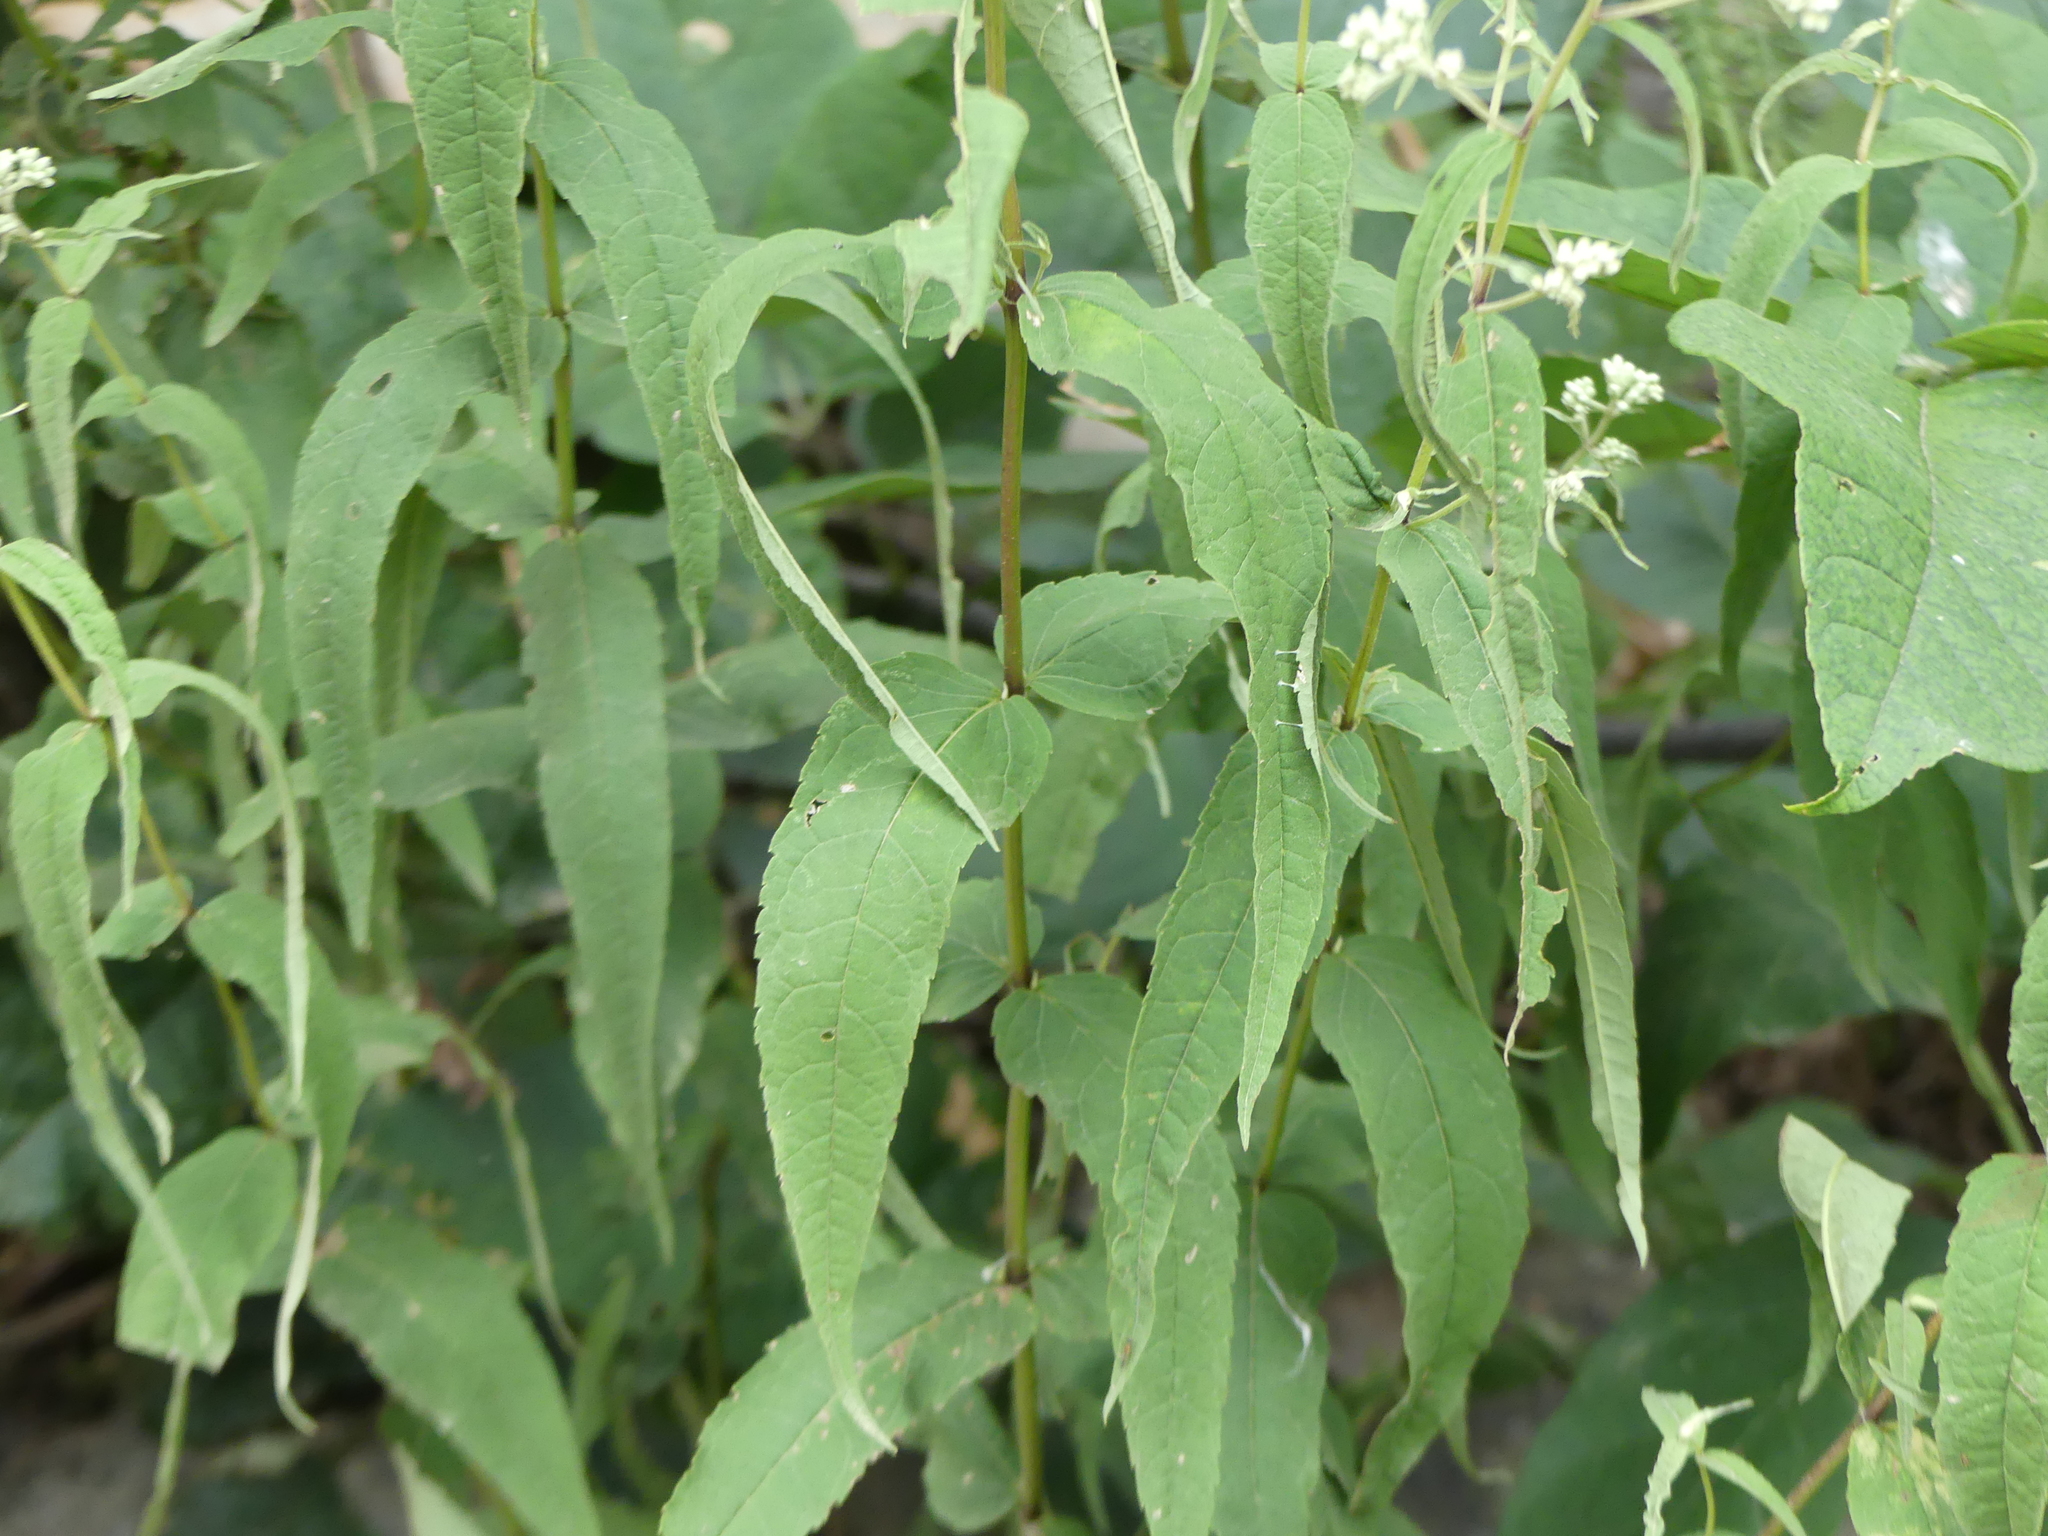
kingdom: Plantae
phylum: Tracheophyta
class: Magnoliopsida
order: Asterales
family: Asteraceae
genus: Eupatorium
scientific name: Eupatorium sessilifolium
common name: Upland boneset
